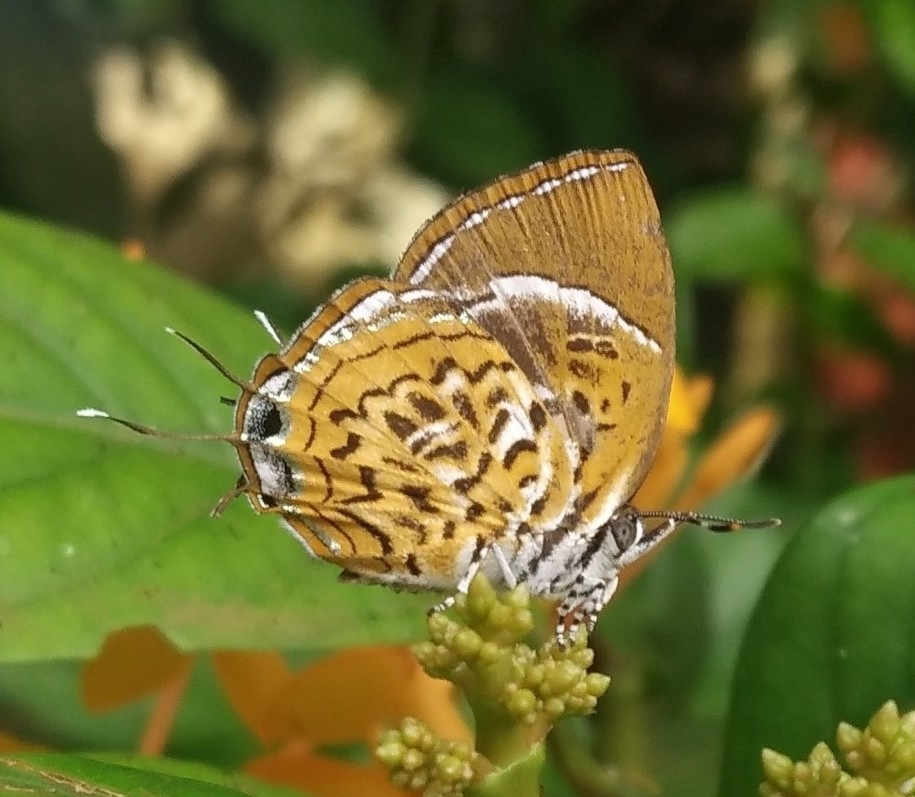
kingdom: Animalia
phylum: Arthropoda
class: Insecta
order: Lepidoptera
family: Lycaenidae
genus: Rathinda
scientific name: Rathinda amor
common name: Monkey puzzle
